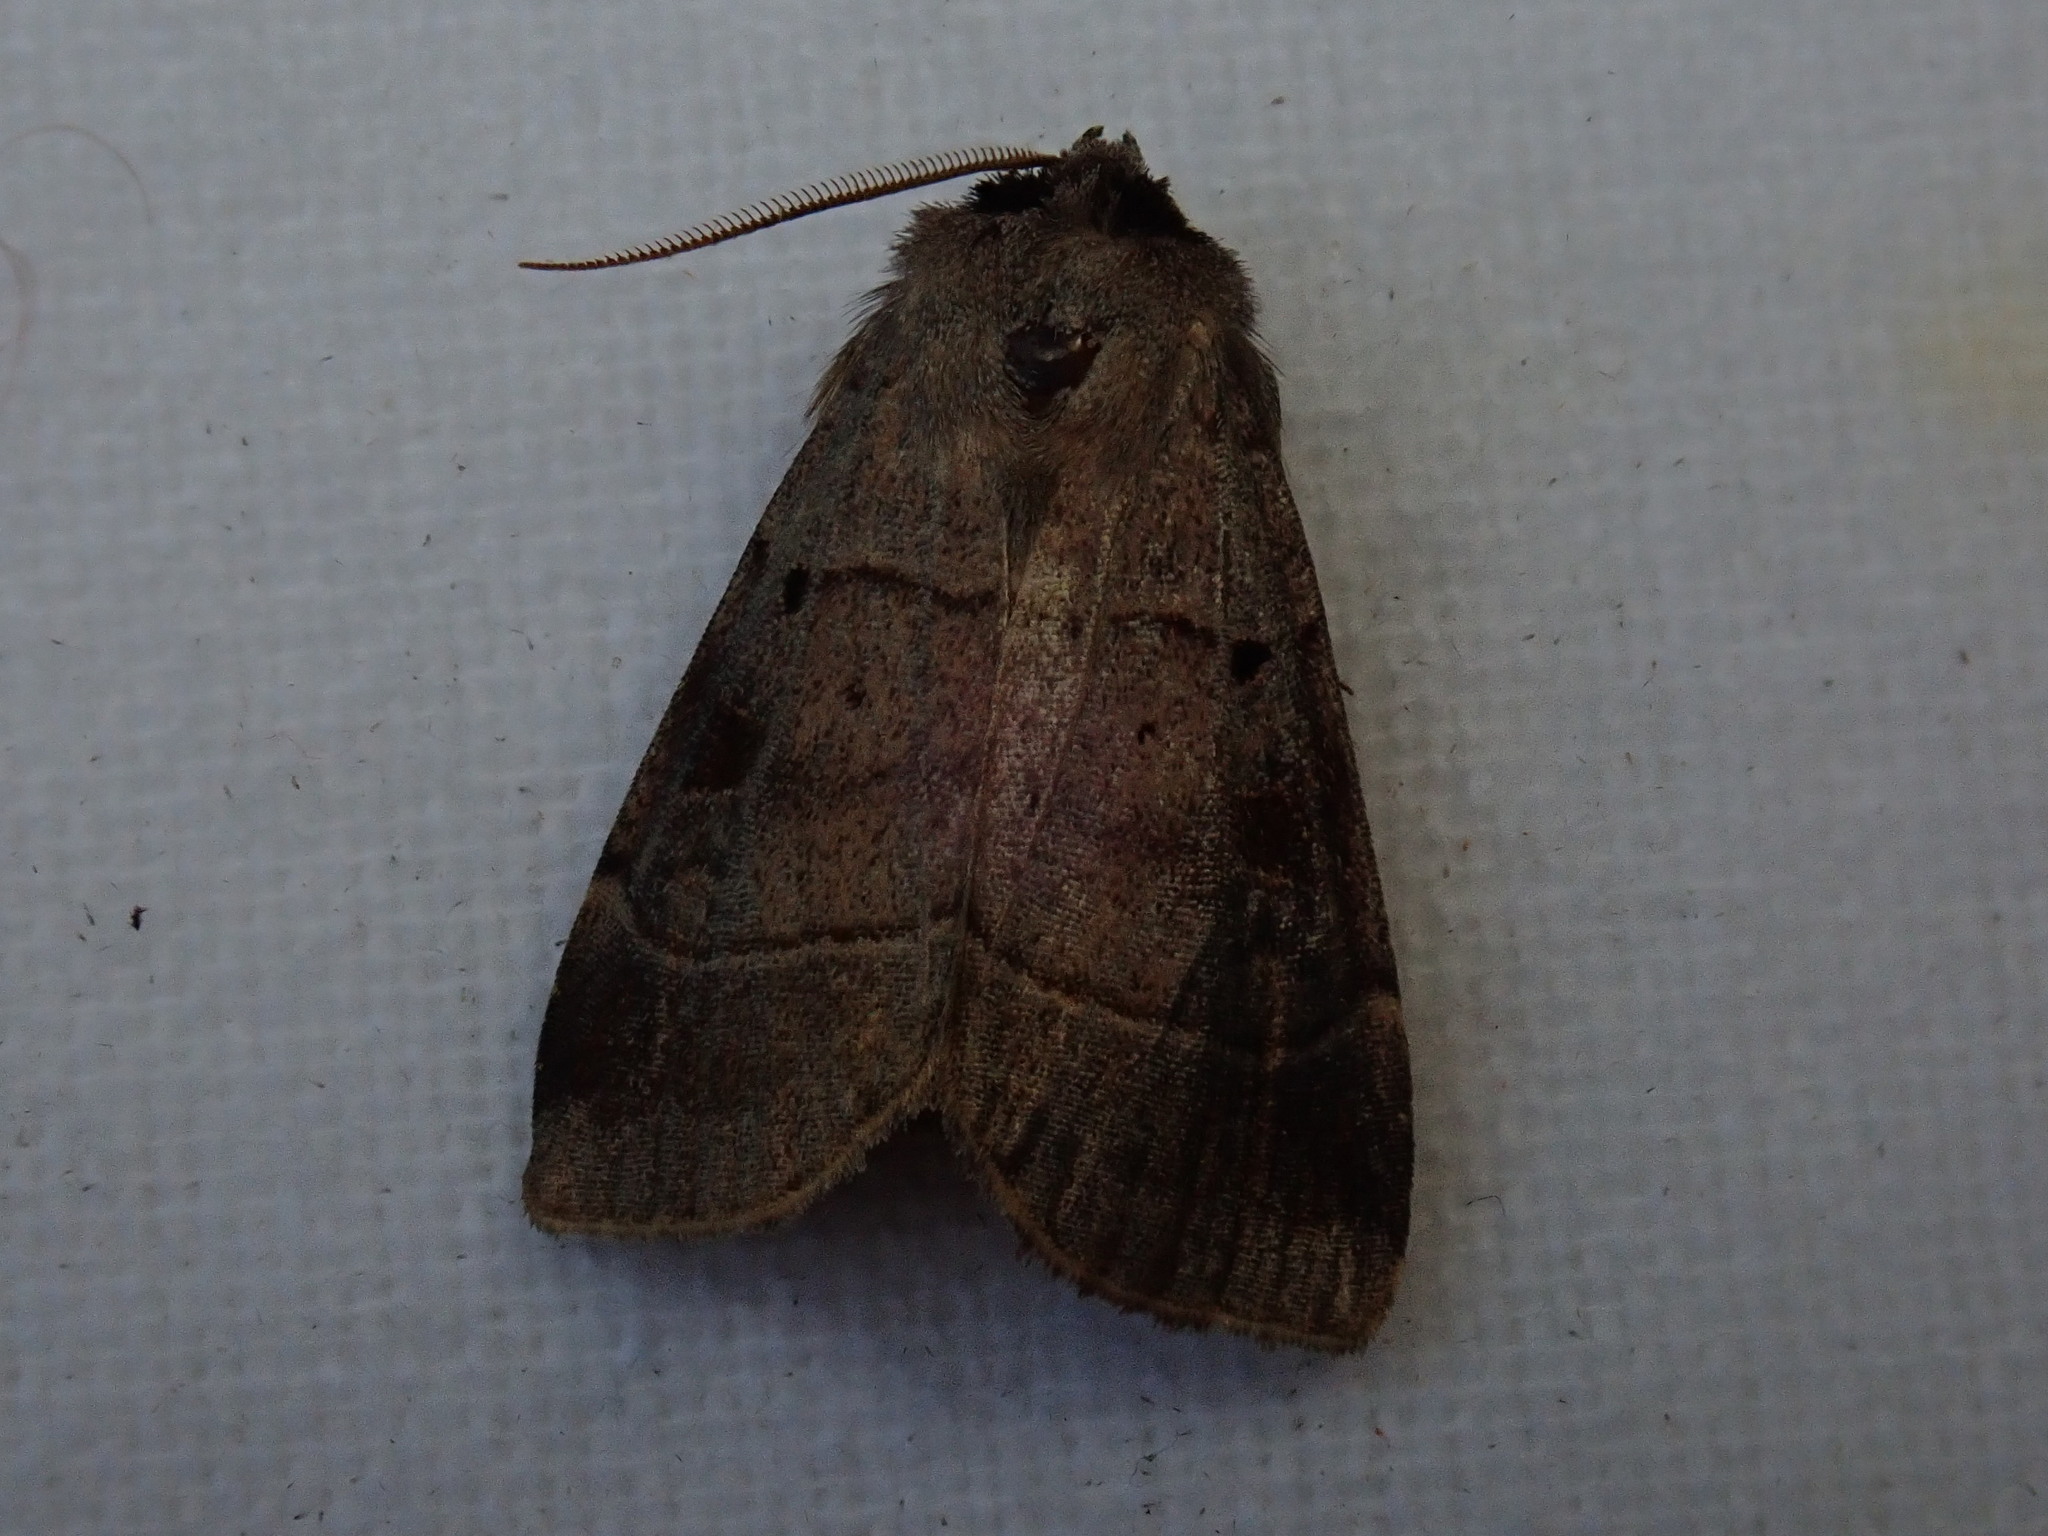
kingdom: Animalia
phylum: Arthropoda
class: Insecta
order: Lepidoptera
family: Noctuidae
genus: Agnorisma
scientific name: Agnorisma badinodis
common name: Pale-banded dart
